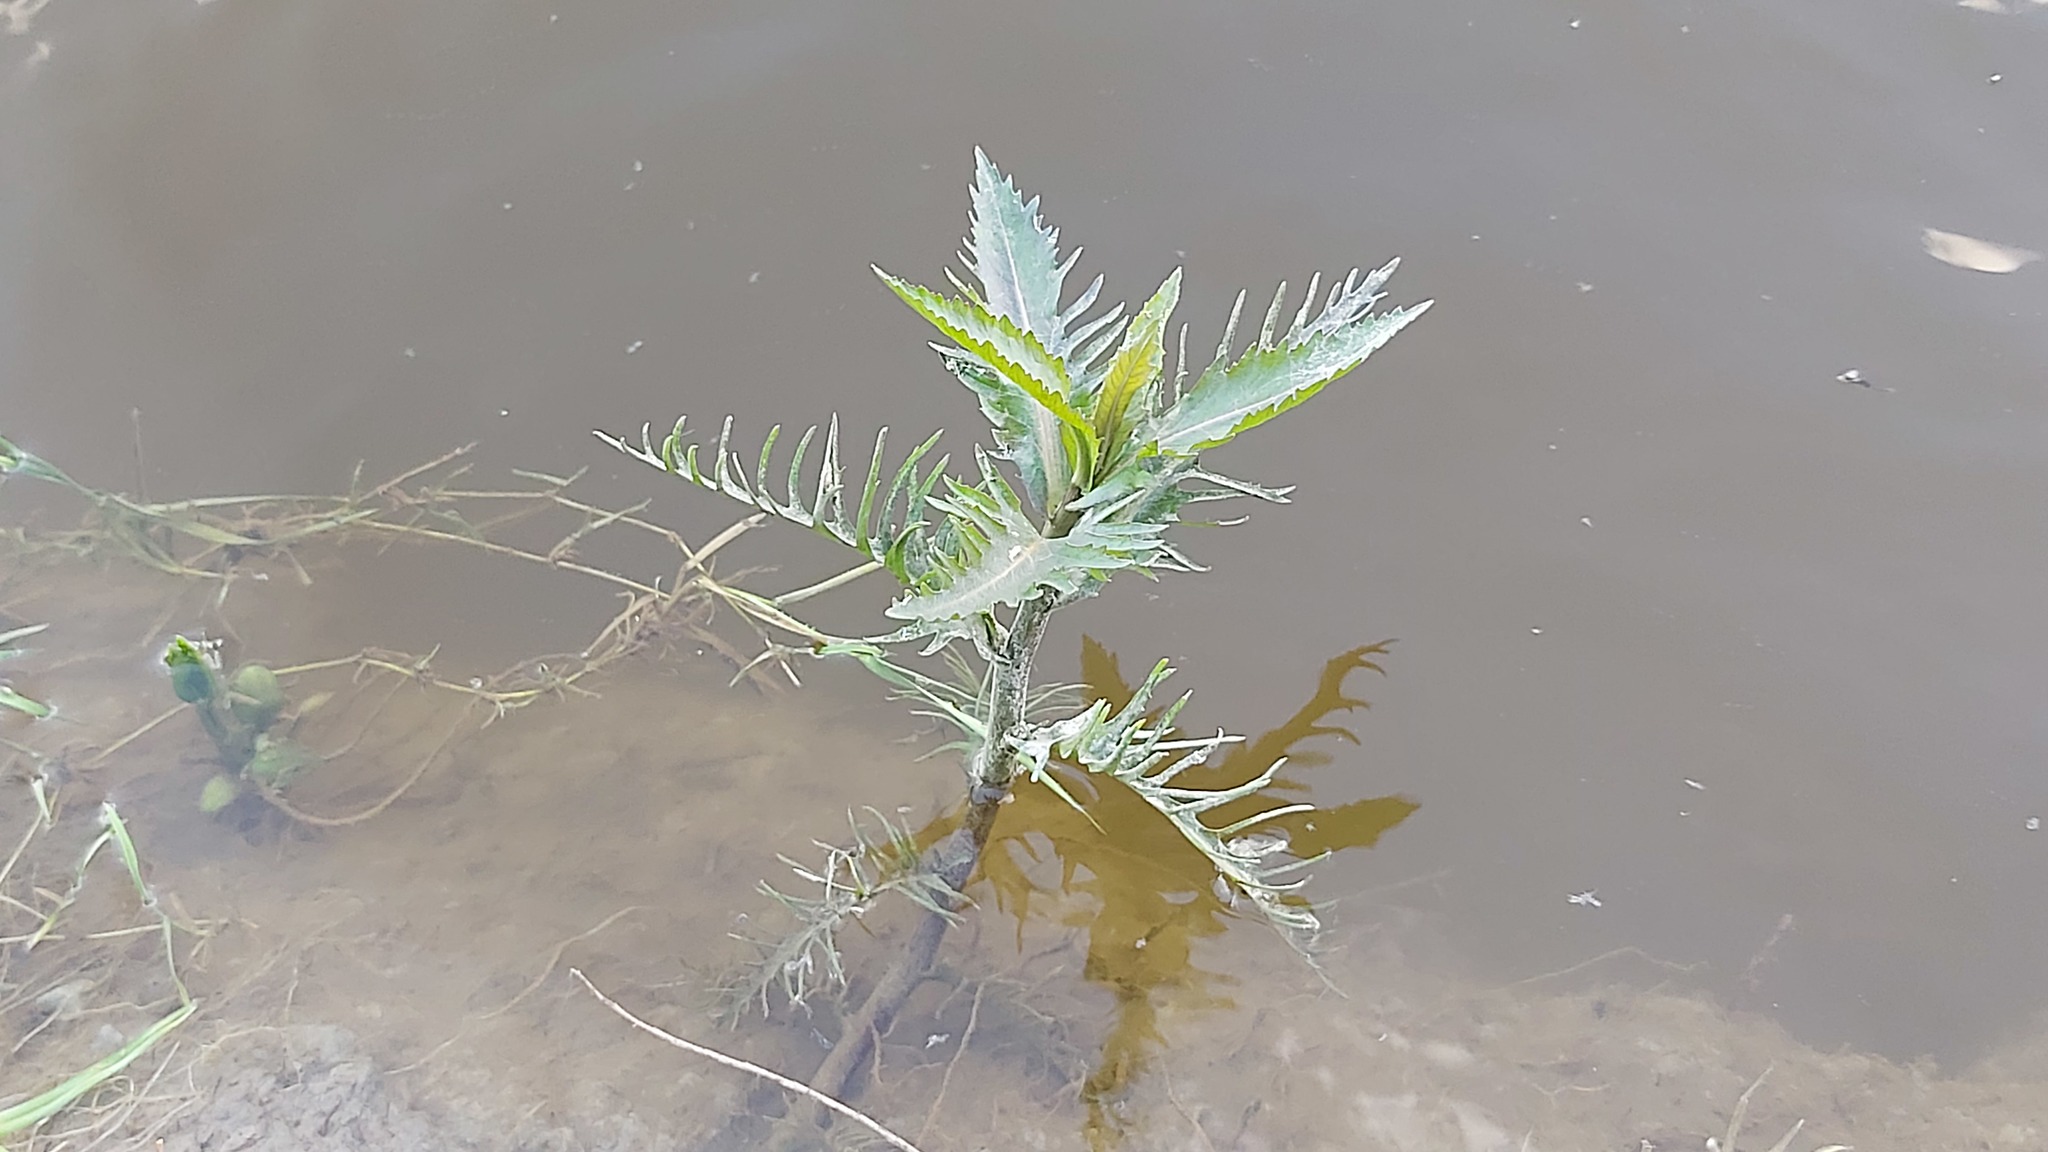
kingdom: Plantae
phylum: Tracheophyta
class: Magnoliopsida
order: Brassicales
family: Brassicaceae
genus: Rorippa
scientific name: Rorippa amphibia
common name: Great yellow-cress
